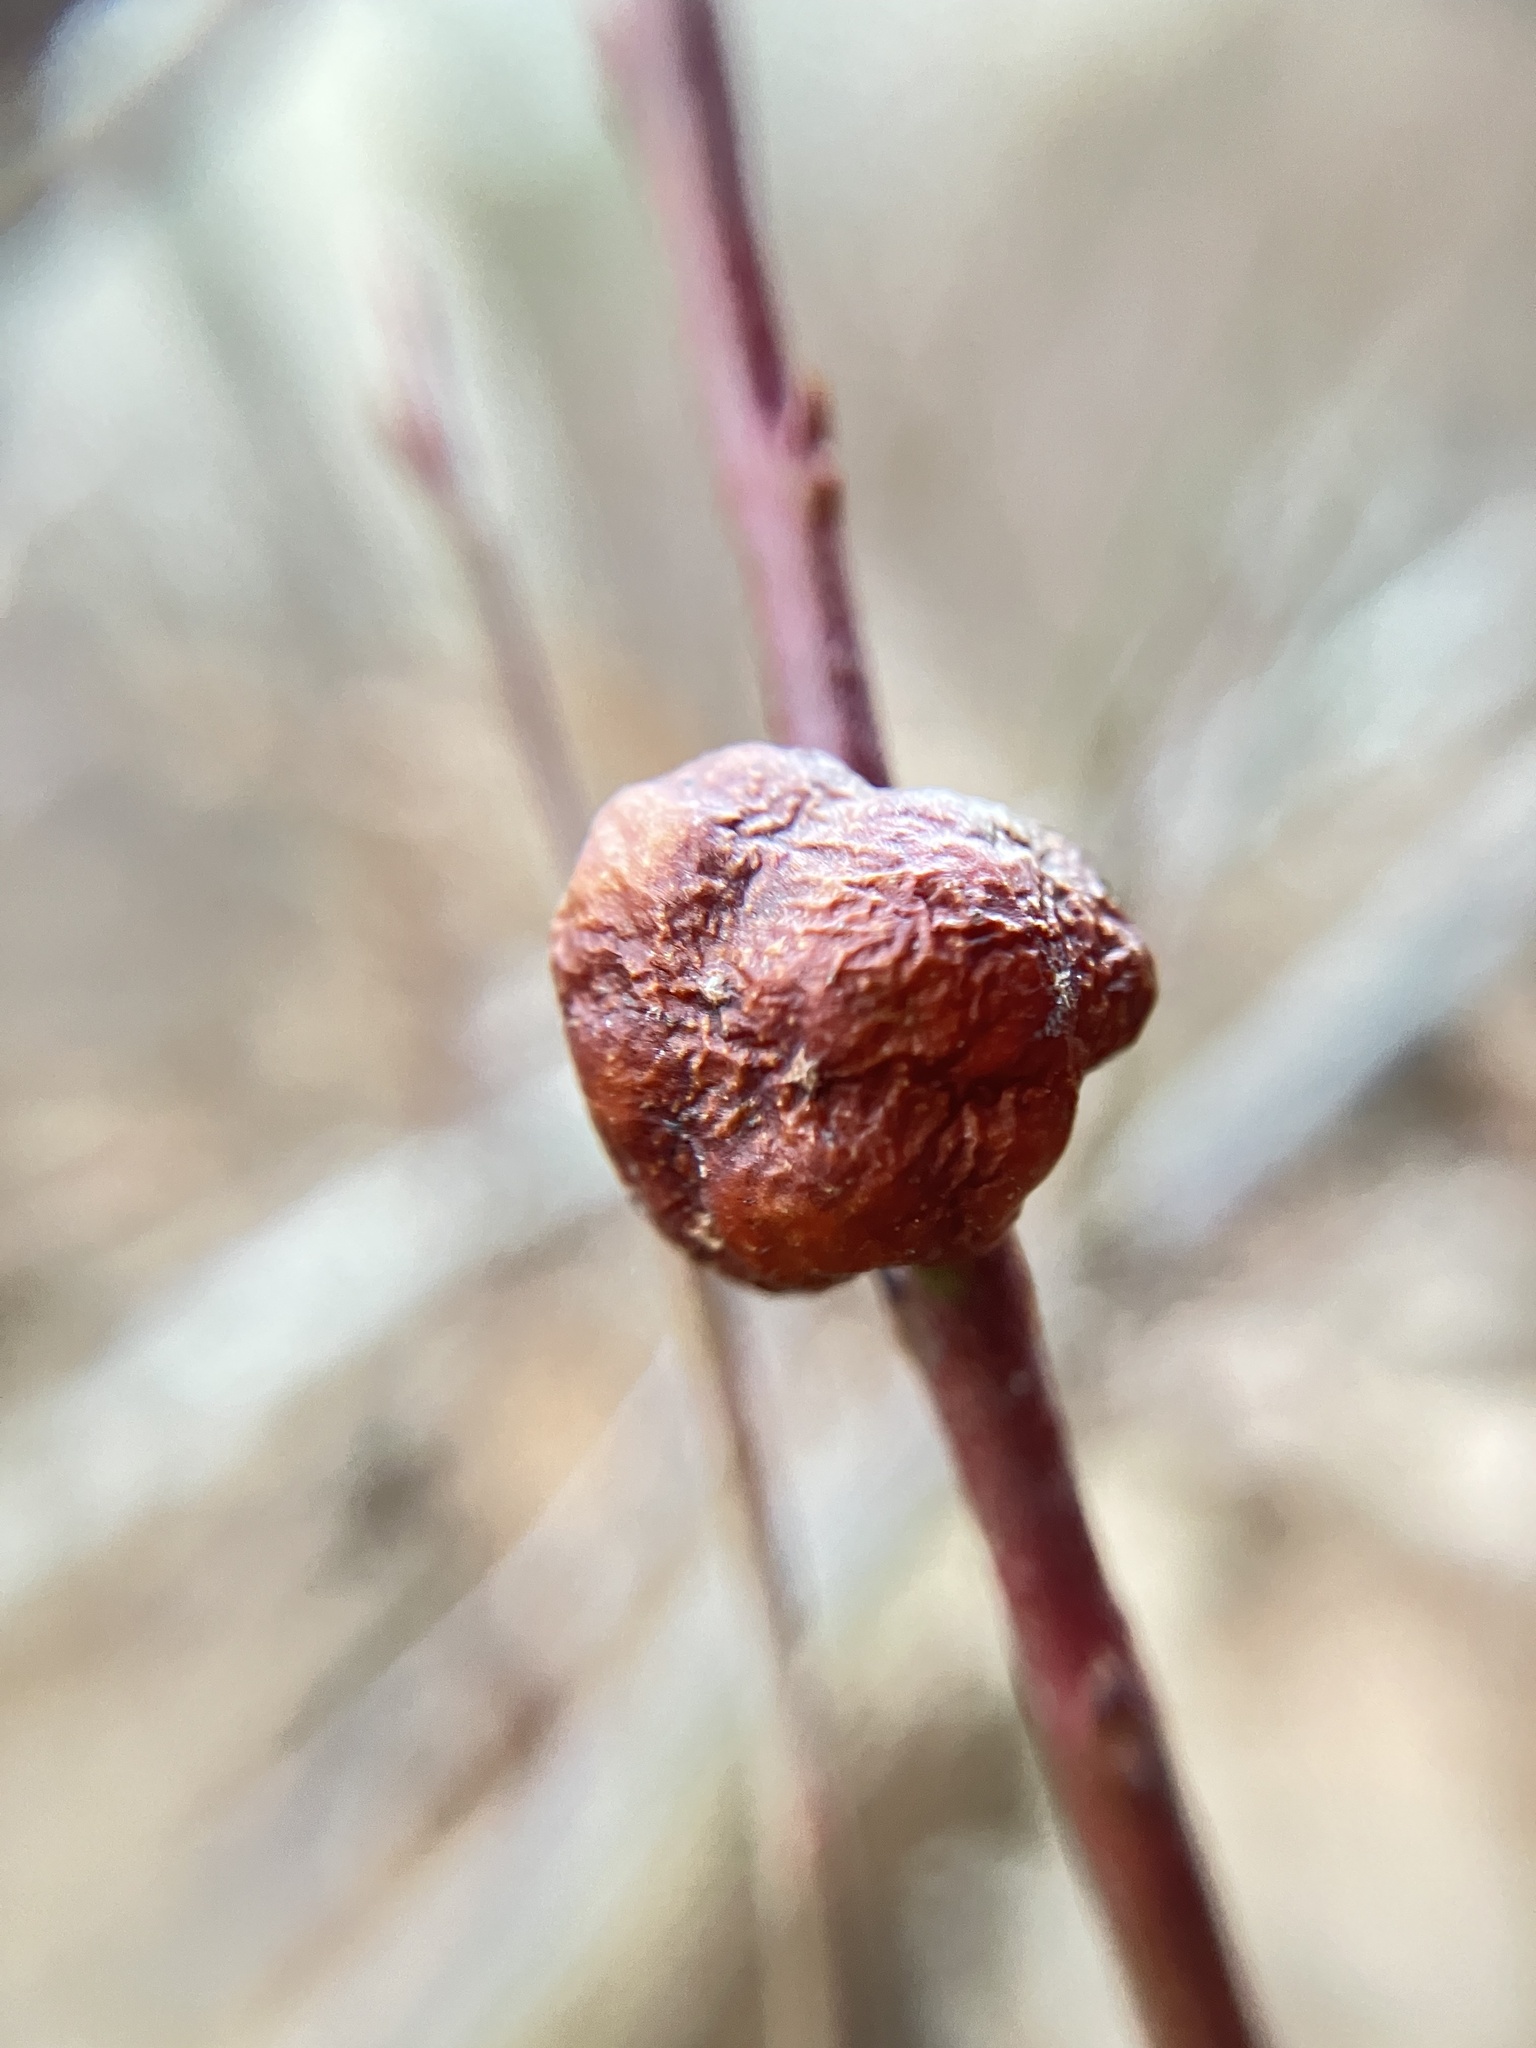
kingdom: Animalia
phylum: Arthropoda
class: Insecta
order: Hymenoptera
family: Pteromalidae
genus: Hemadas
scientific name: Hemadas nubilipennis
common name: Blueberry stem gall wasp
